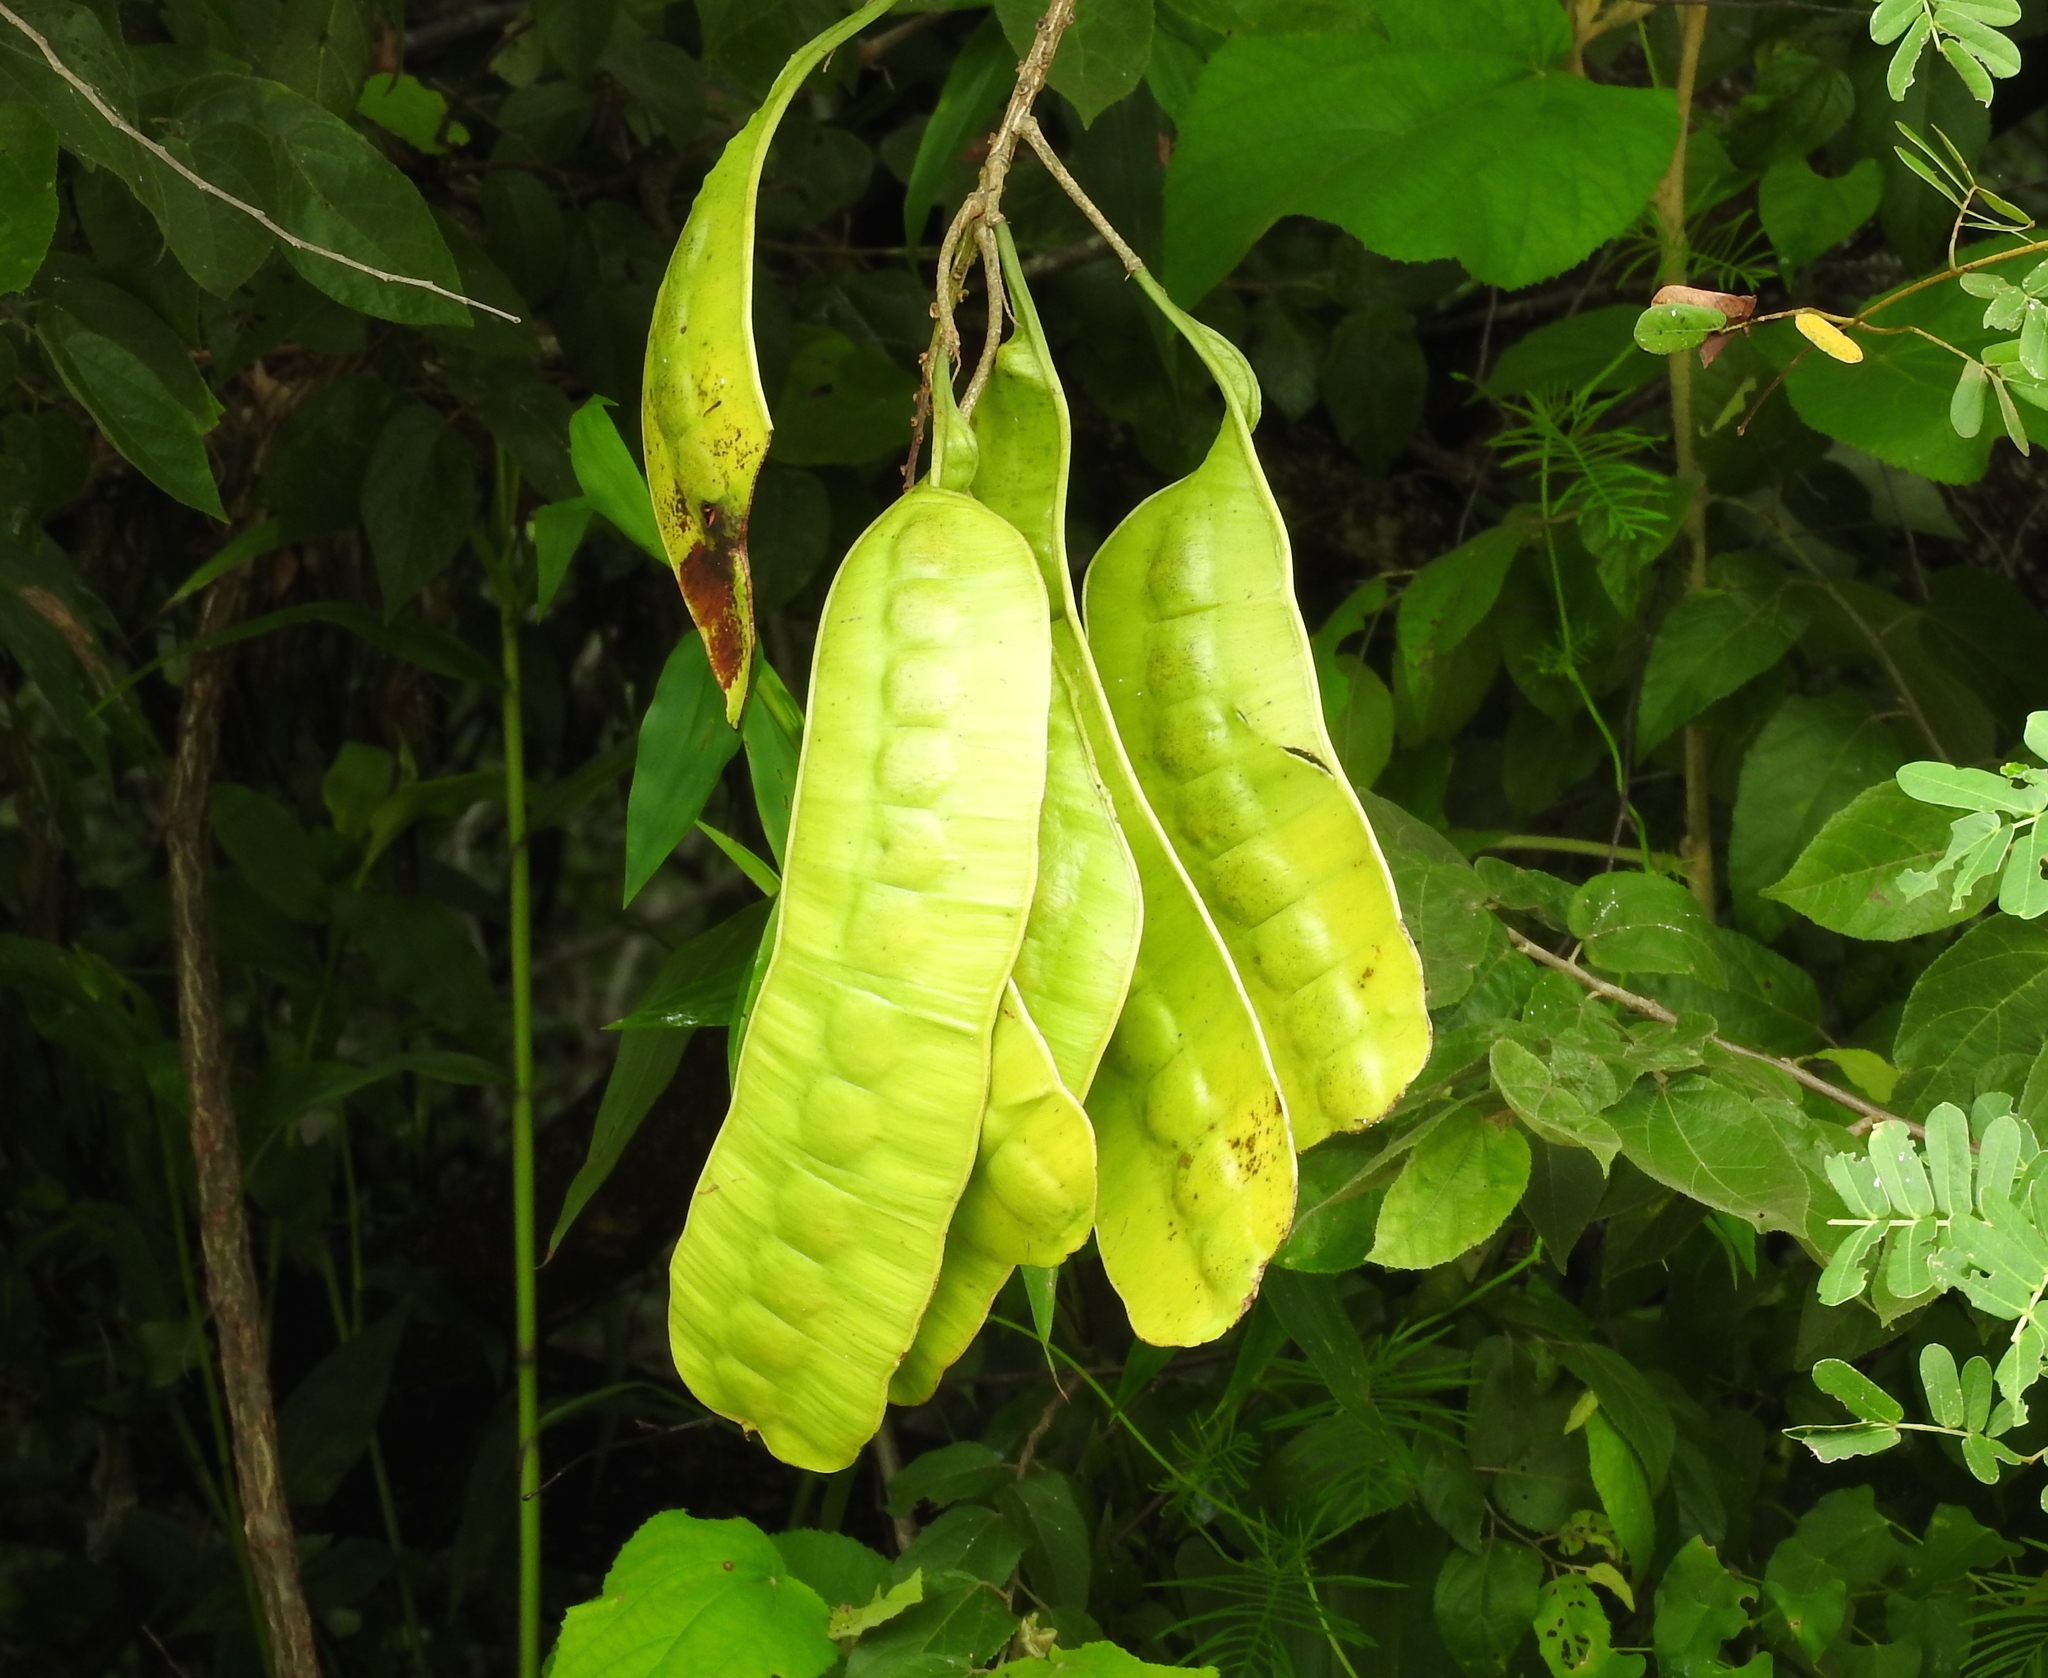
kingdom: Plantae
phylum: Tracheophyta
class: Magnoliopsida
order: Fabales
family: Fabaceae
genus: Entada
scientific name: Entada polystachya
